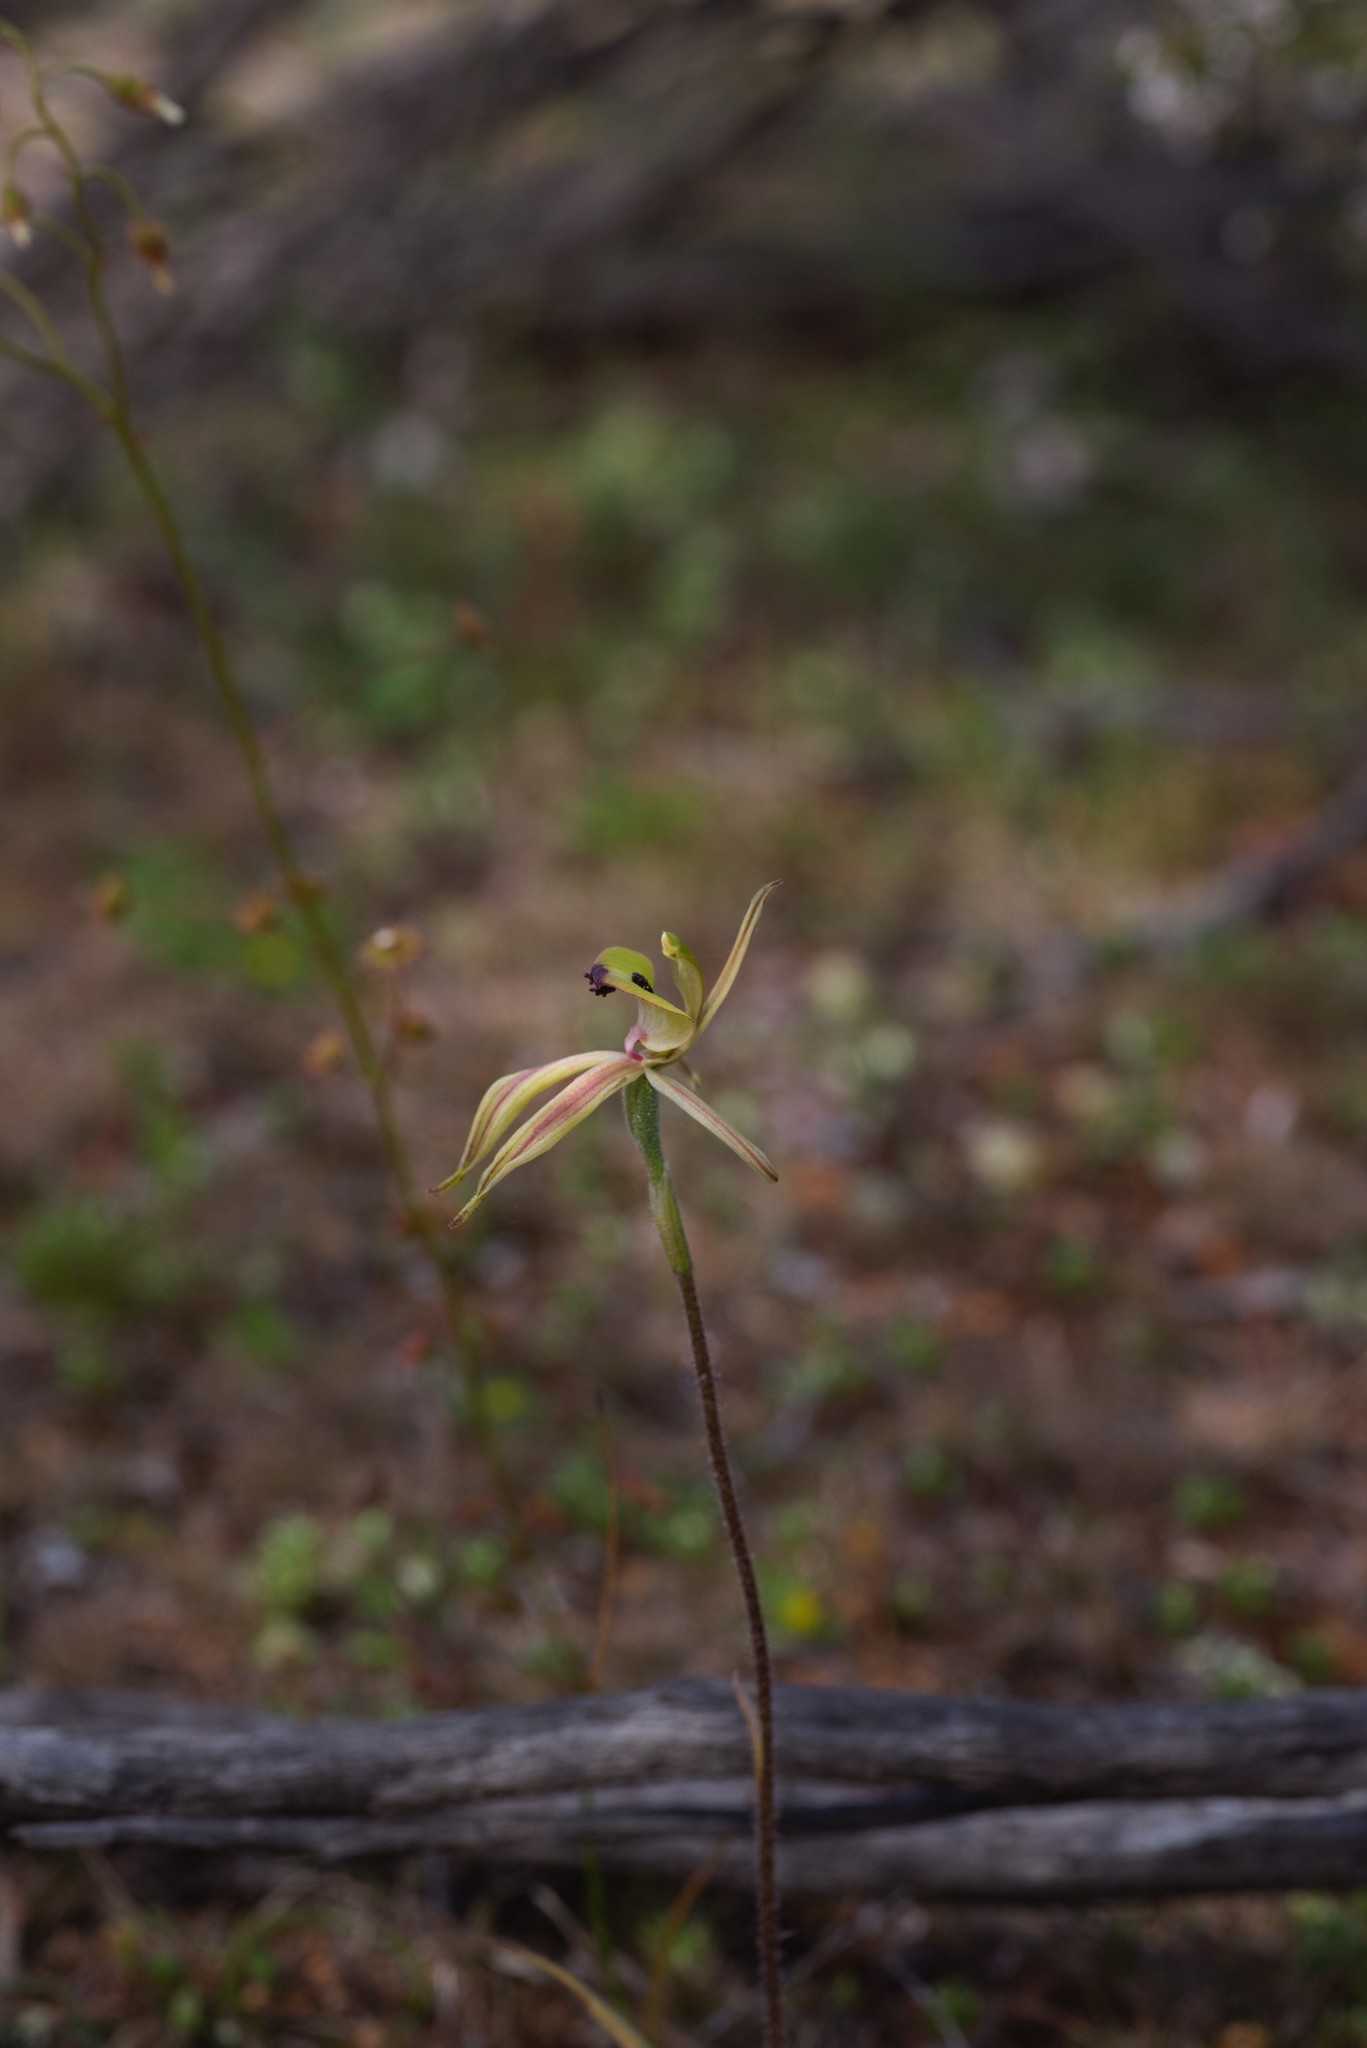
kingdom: Plantae
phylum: Tracheophyta
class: Liliopsida
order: Asparagales
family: Orchidaceae
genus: Caladenia
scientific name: Caladenia roei
